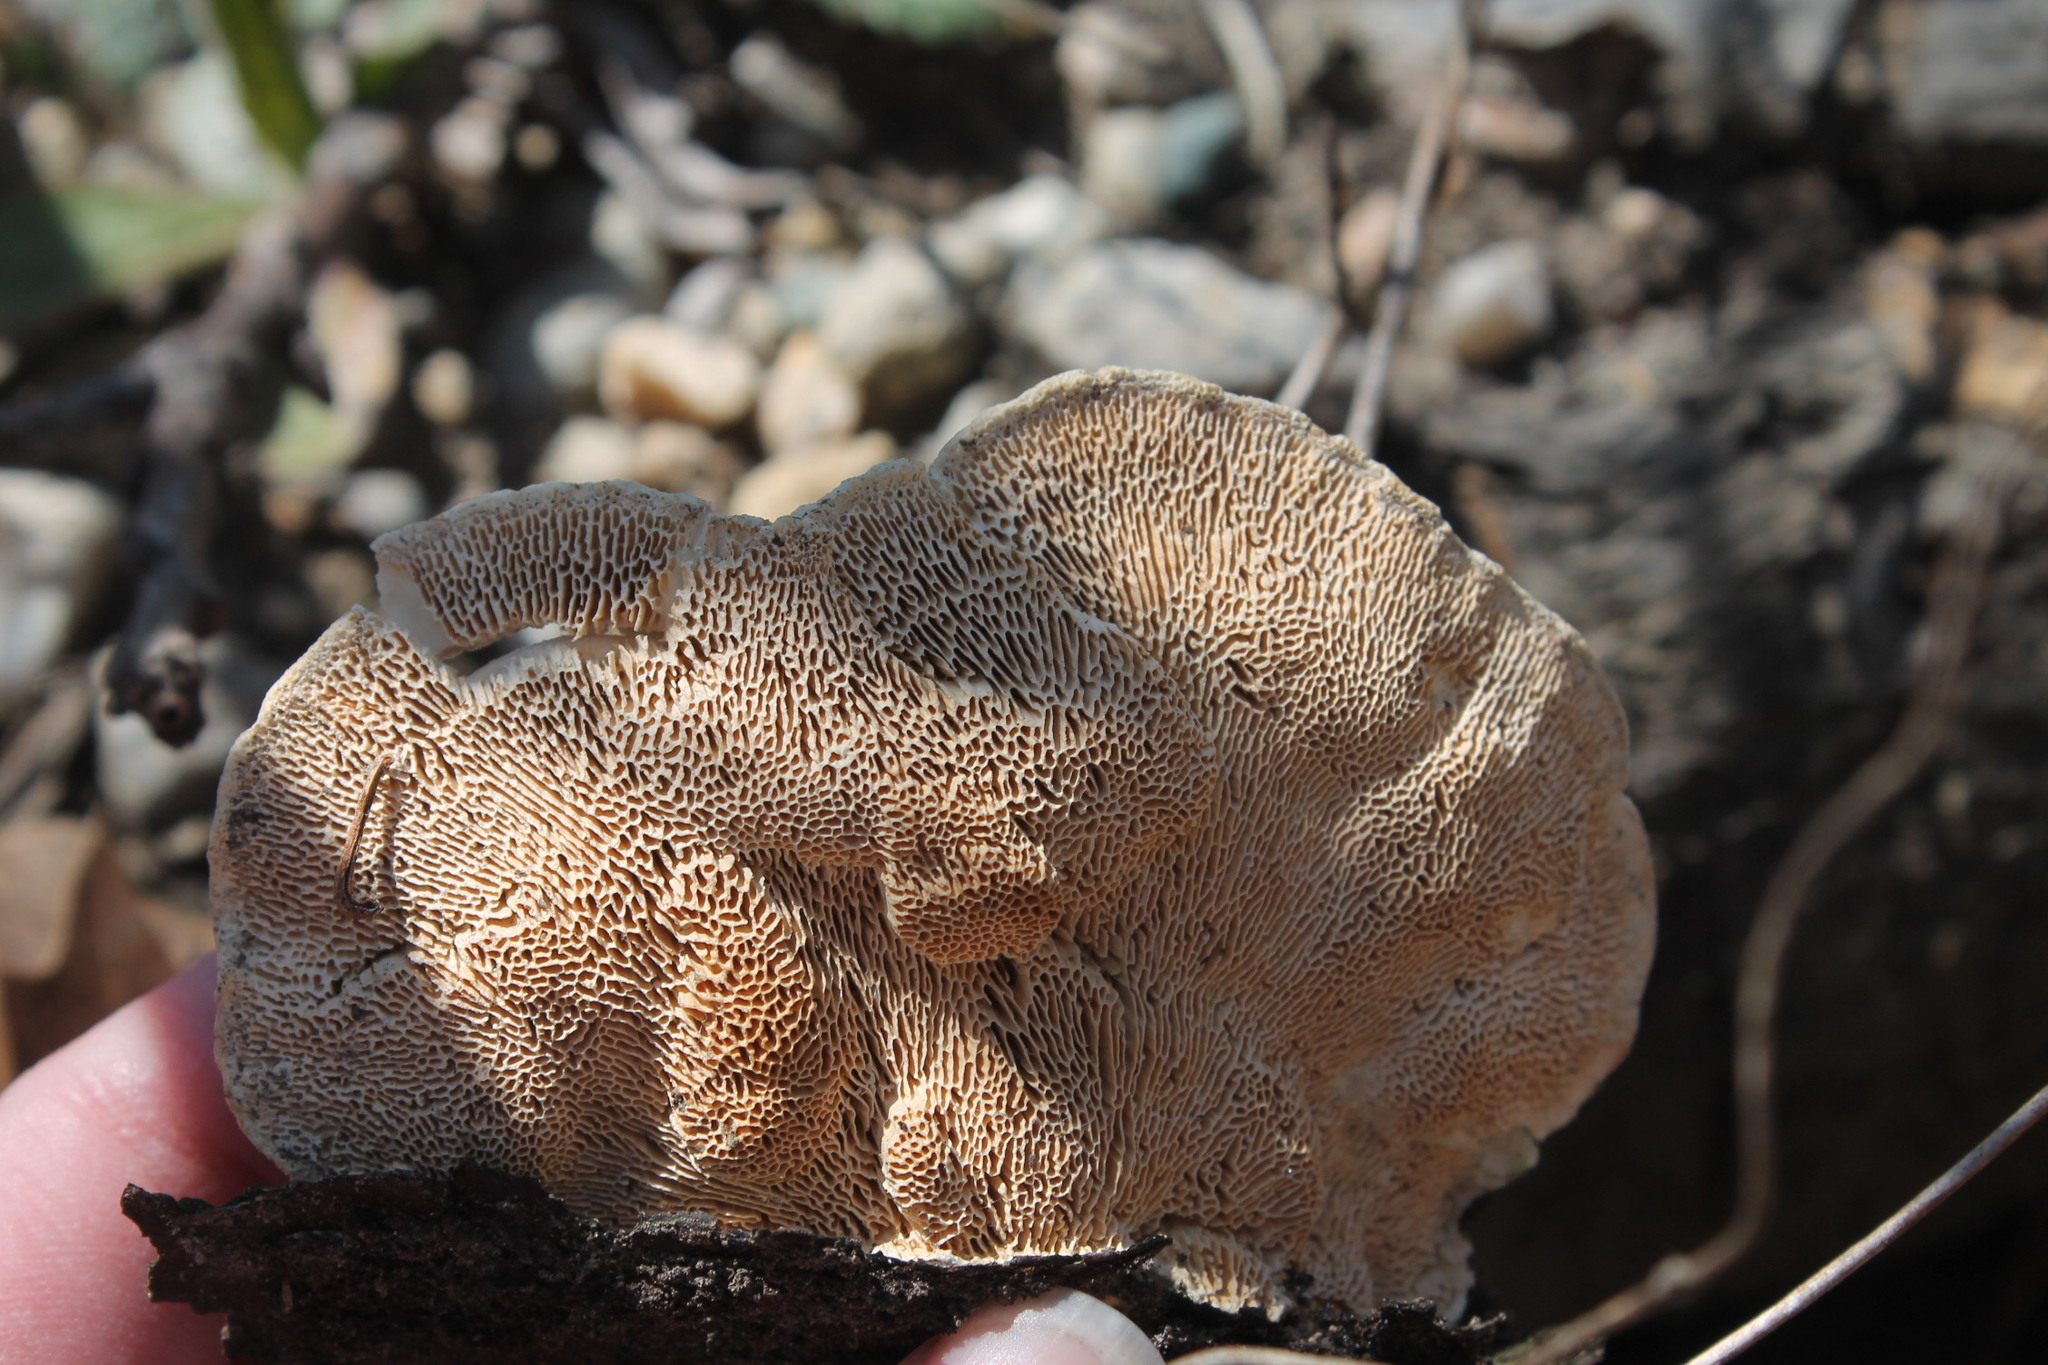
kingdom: Fungi
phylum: Basidiomycota
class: Agaricomycetes
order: Polyporales
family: Polyporaceae
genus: Trametes
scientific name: Trametes gibbosa
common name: Lumpy bracket
